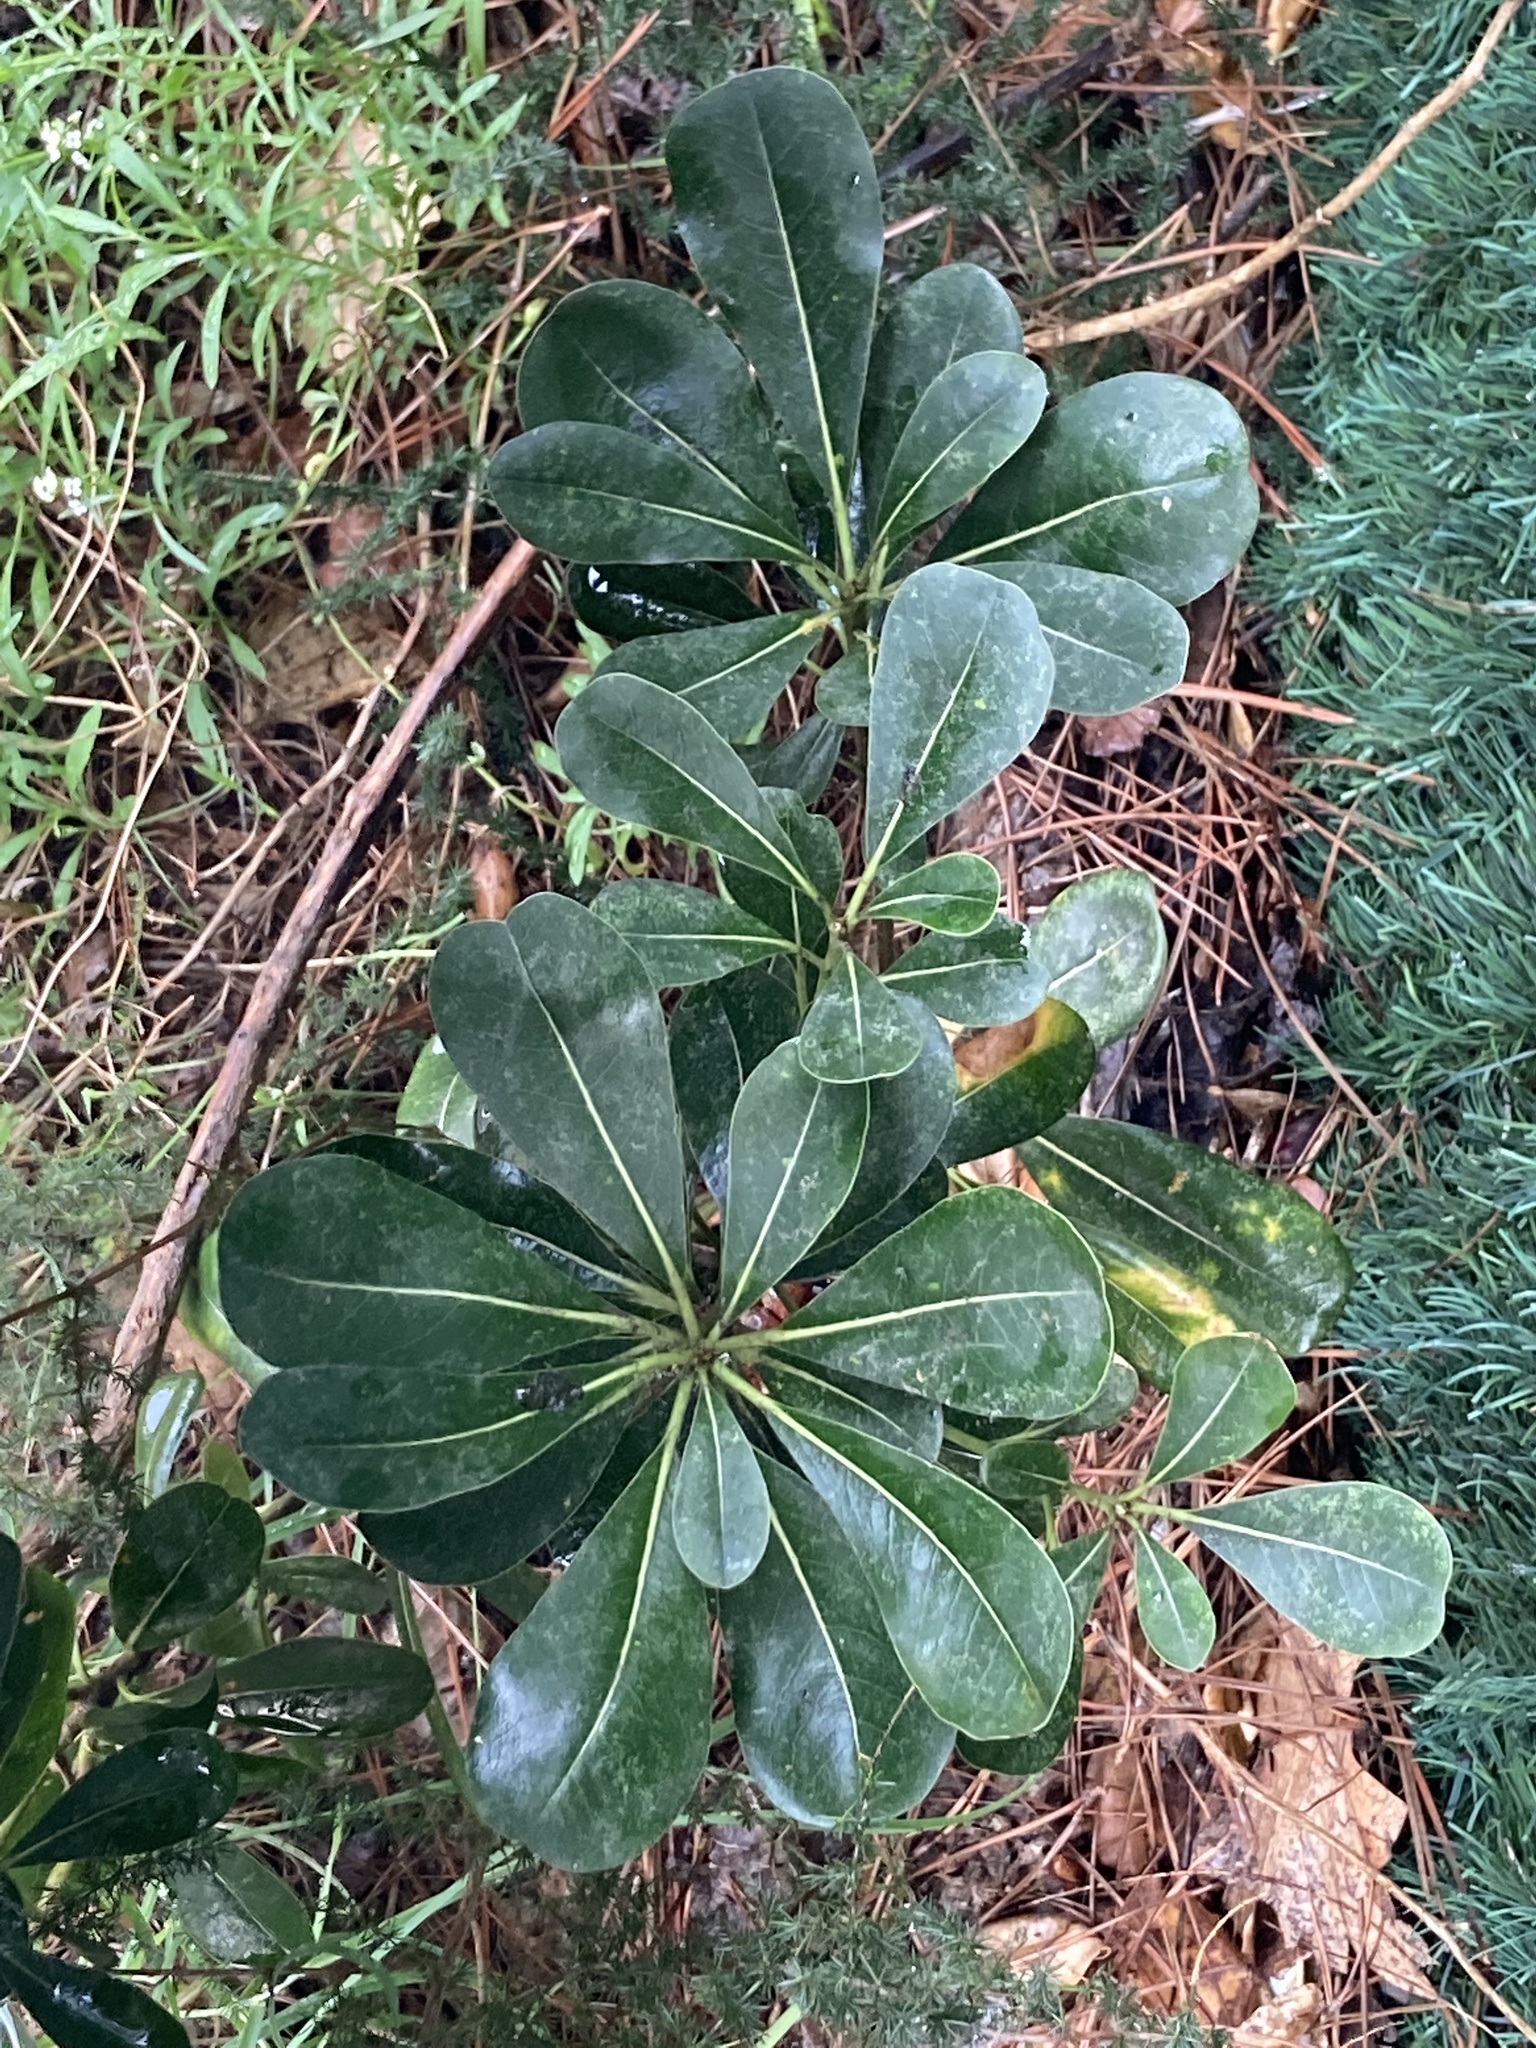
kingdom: Plantae
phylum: Tracheophyta
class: Magnoliopsida
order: Apiales
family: Pittosporaceae
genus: Pittosporum
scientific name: Pittosporum tobira
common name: Japanese cheesewood
